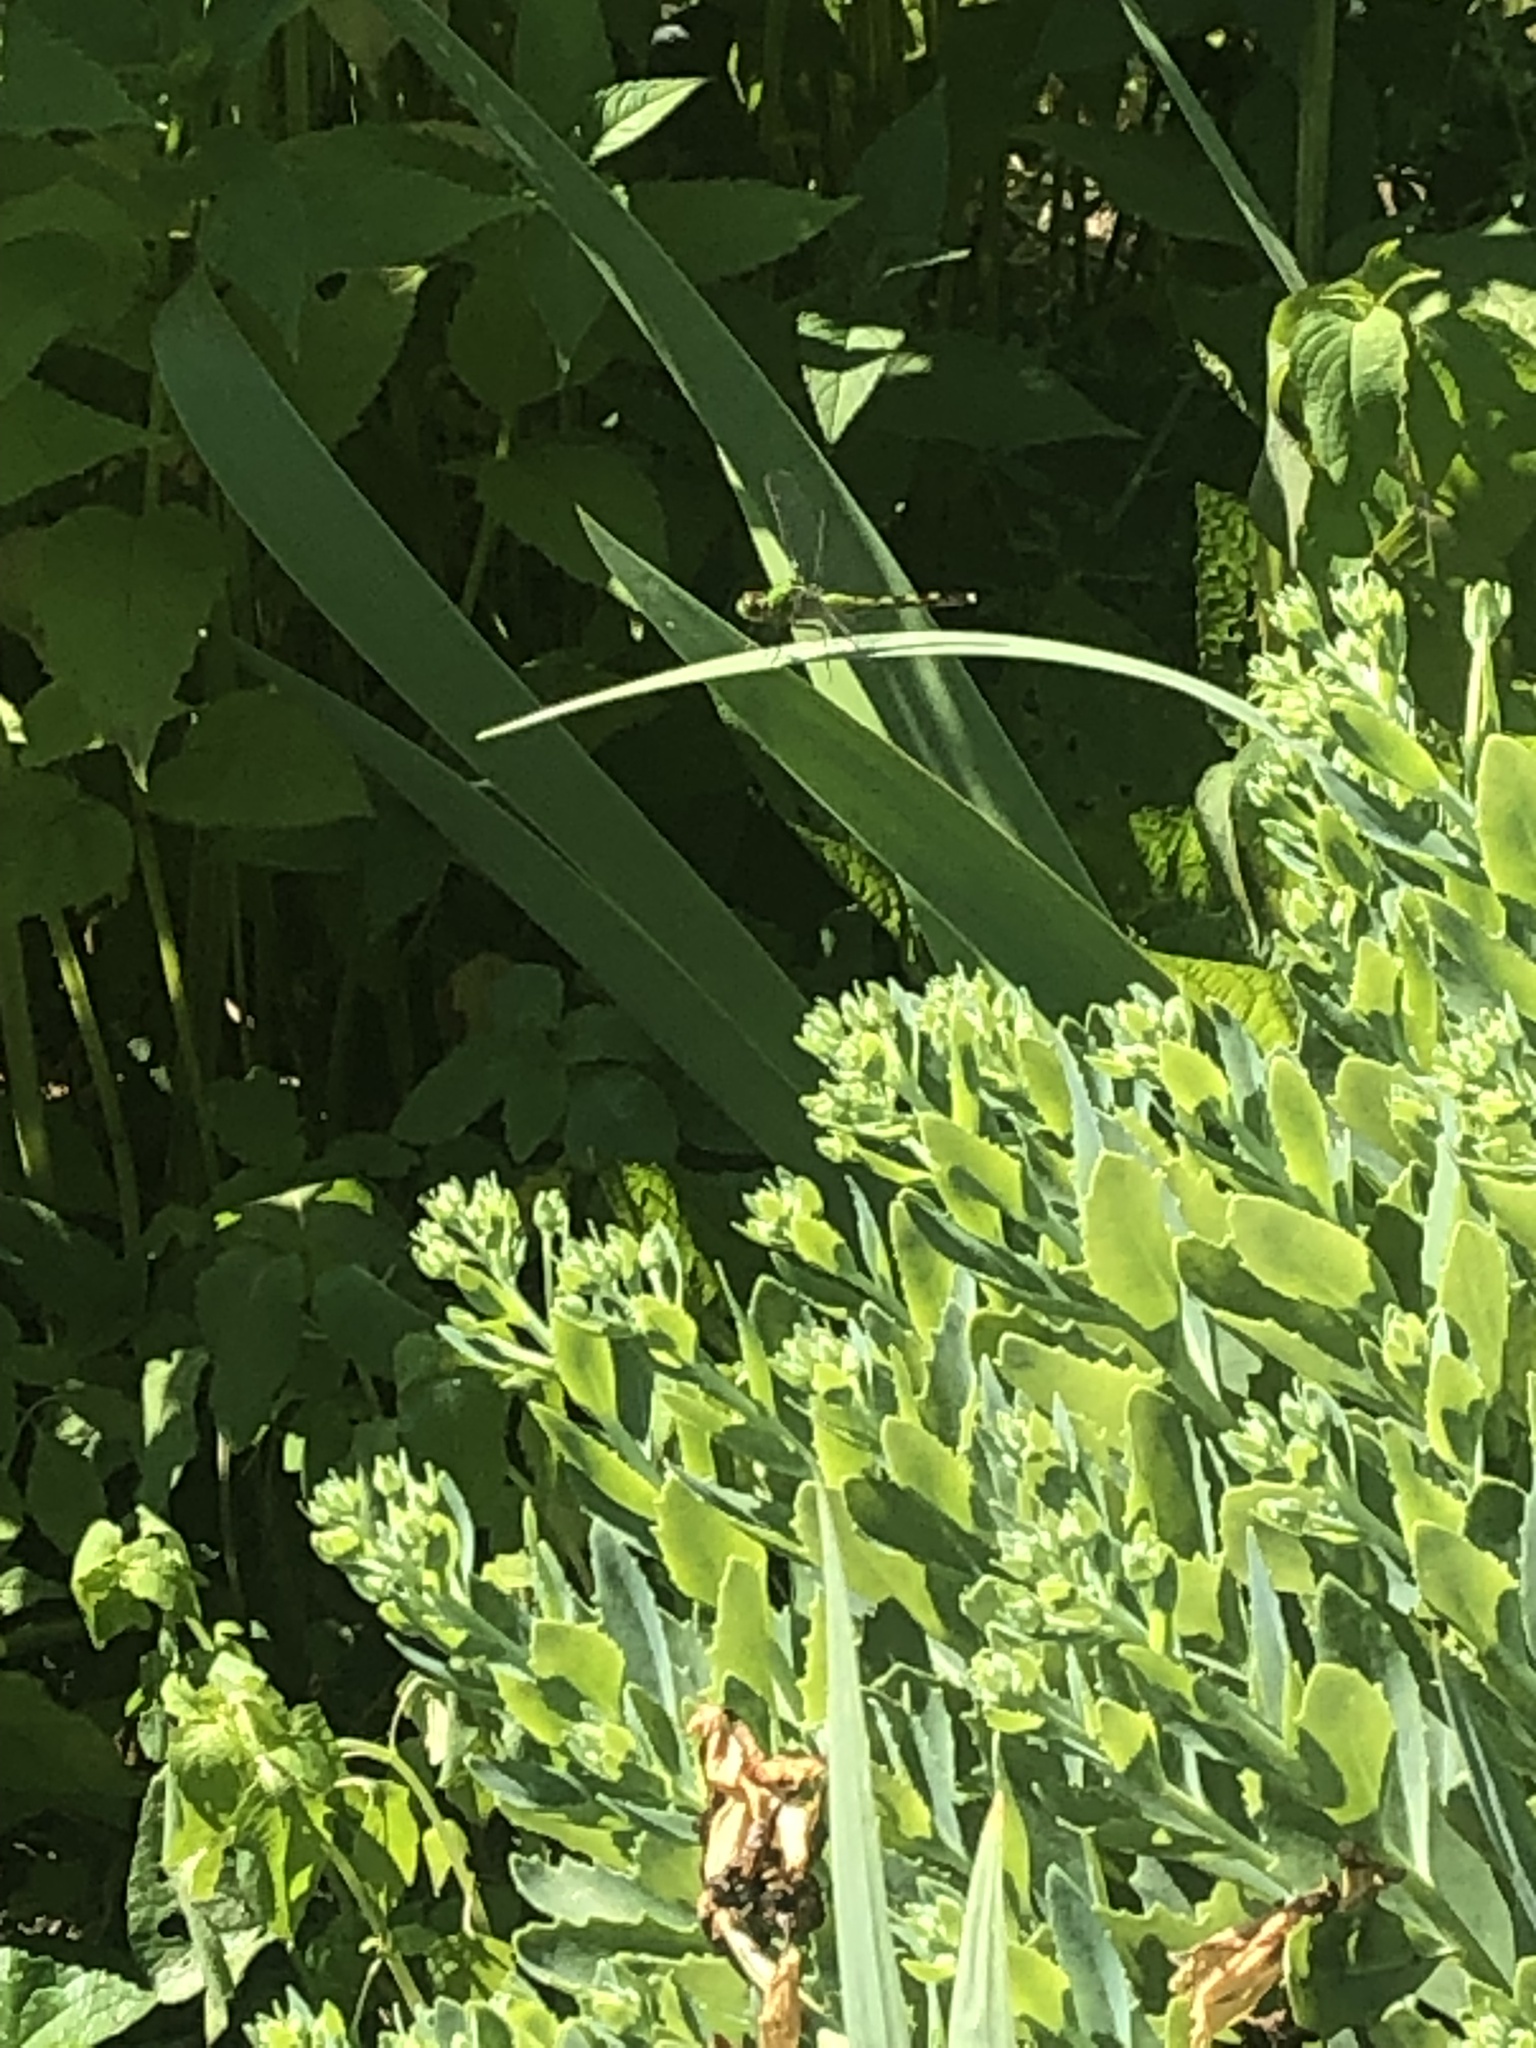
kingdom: Animalia
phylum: Arthropoda
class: Insecta
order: Odonata
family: Libellulidae
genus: Erythemis
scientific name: Erythemis simplicicollis
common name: Eastern pondhawk
